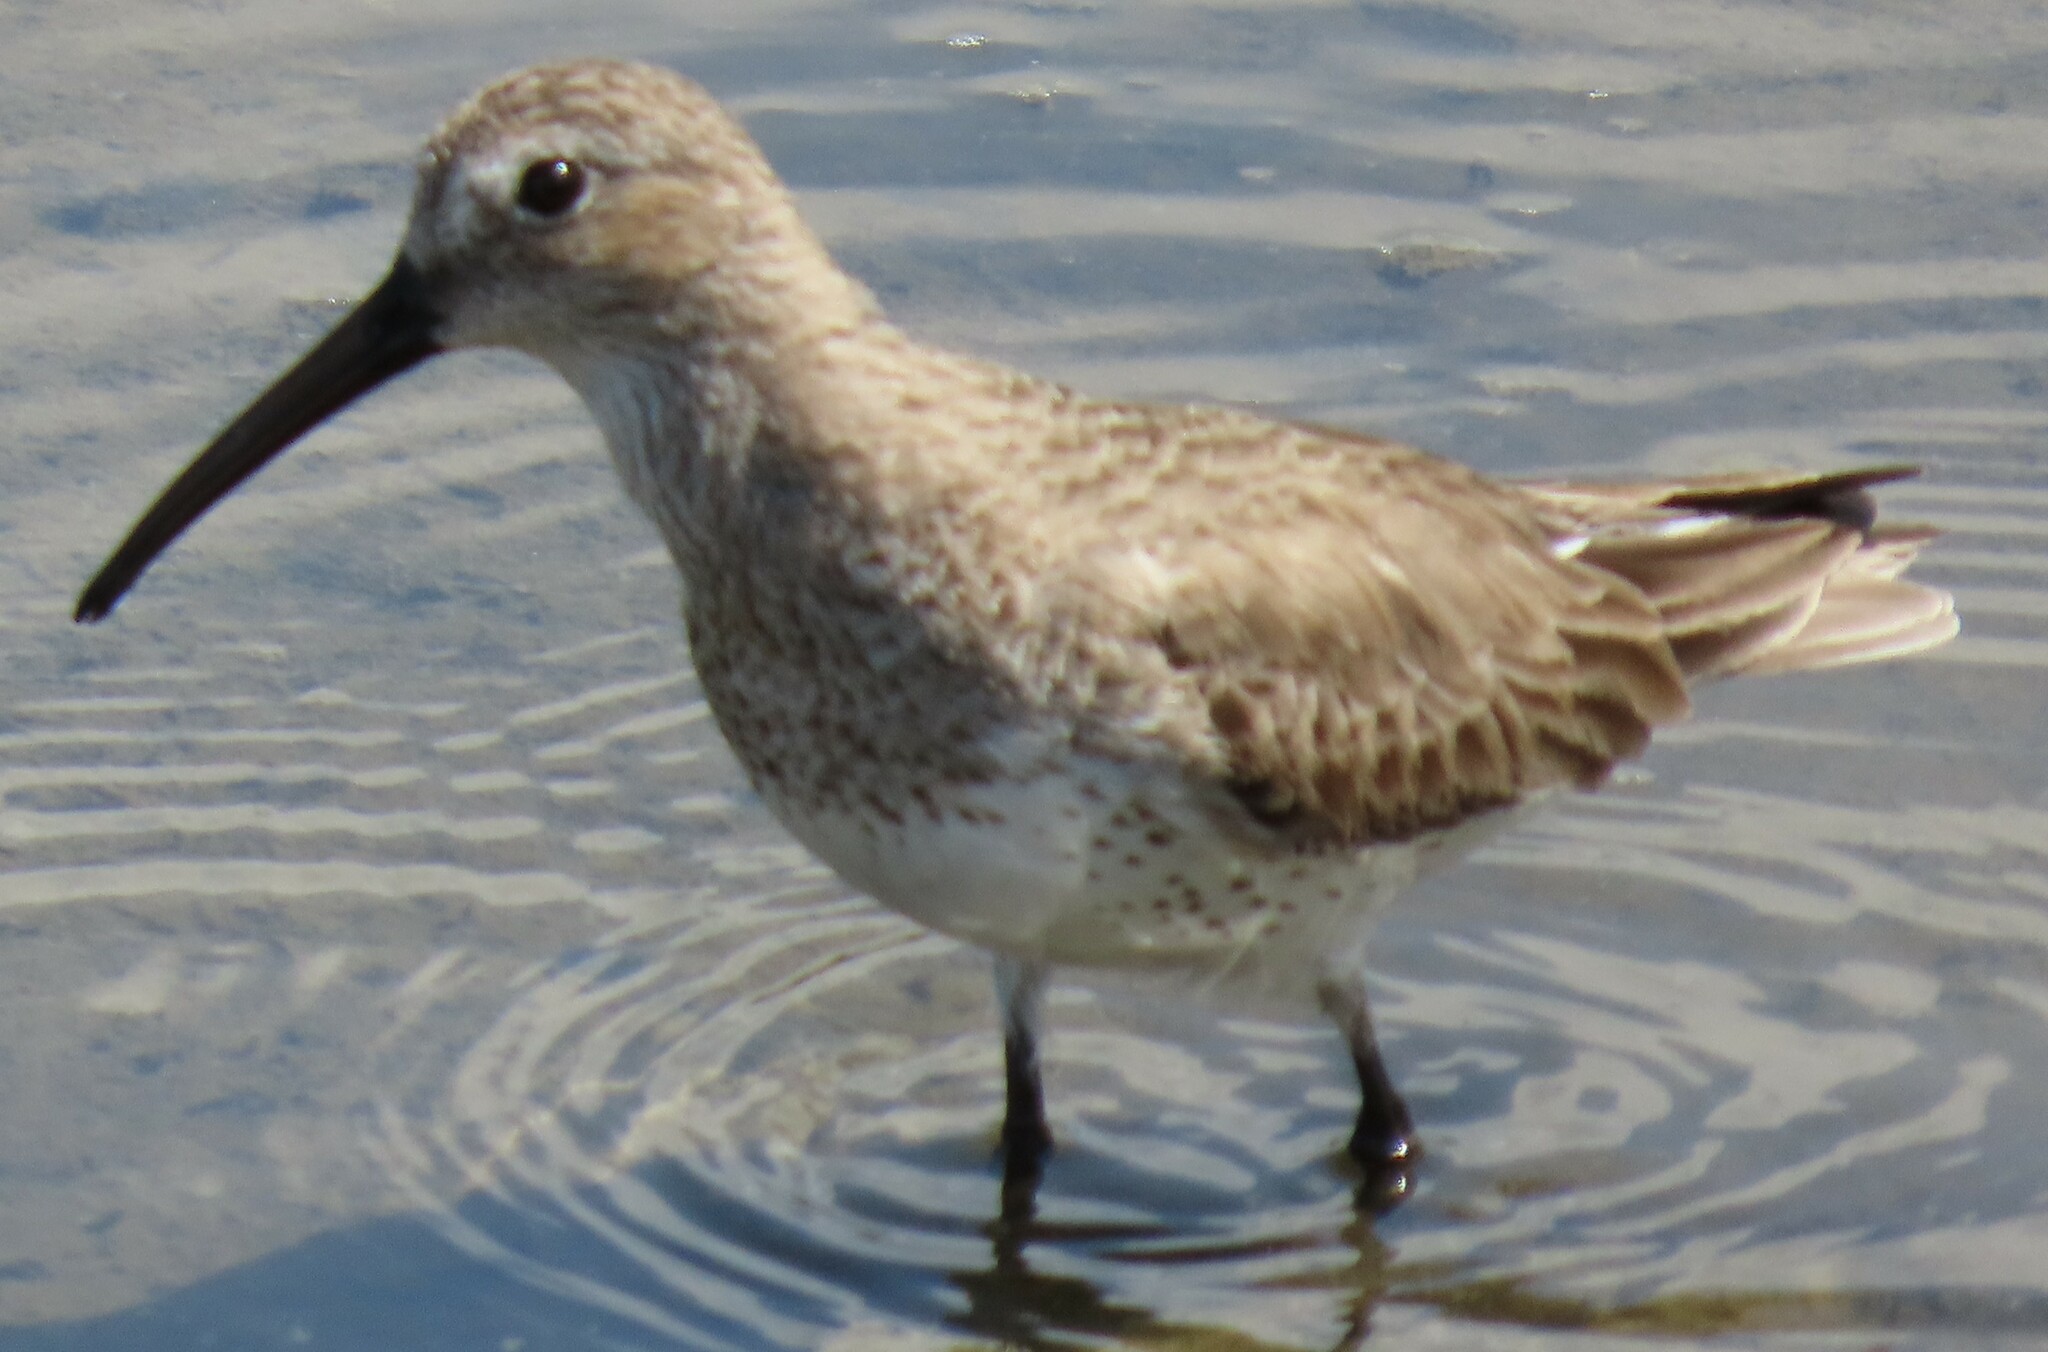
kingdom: Animalia
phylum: Chordata
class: Aves
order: Charadriiformes
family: Scolopacidae
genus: Calidris
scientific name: Calidris alpina
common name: Dunlin
